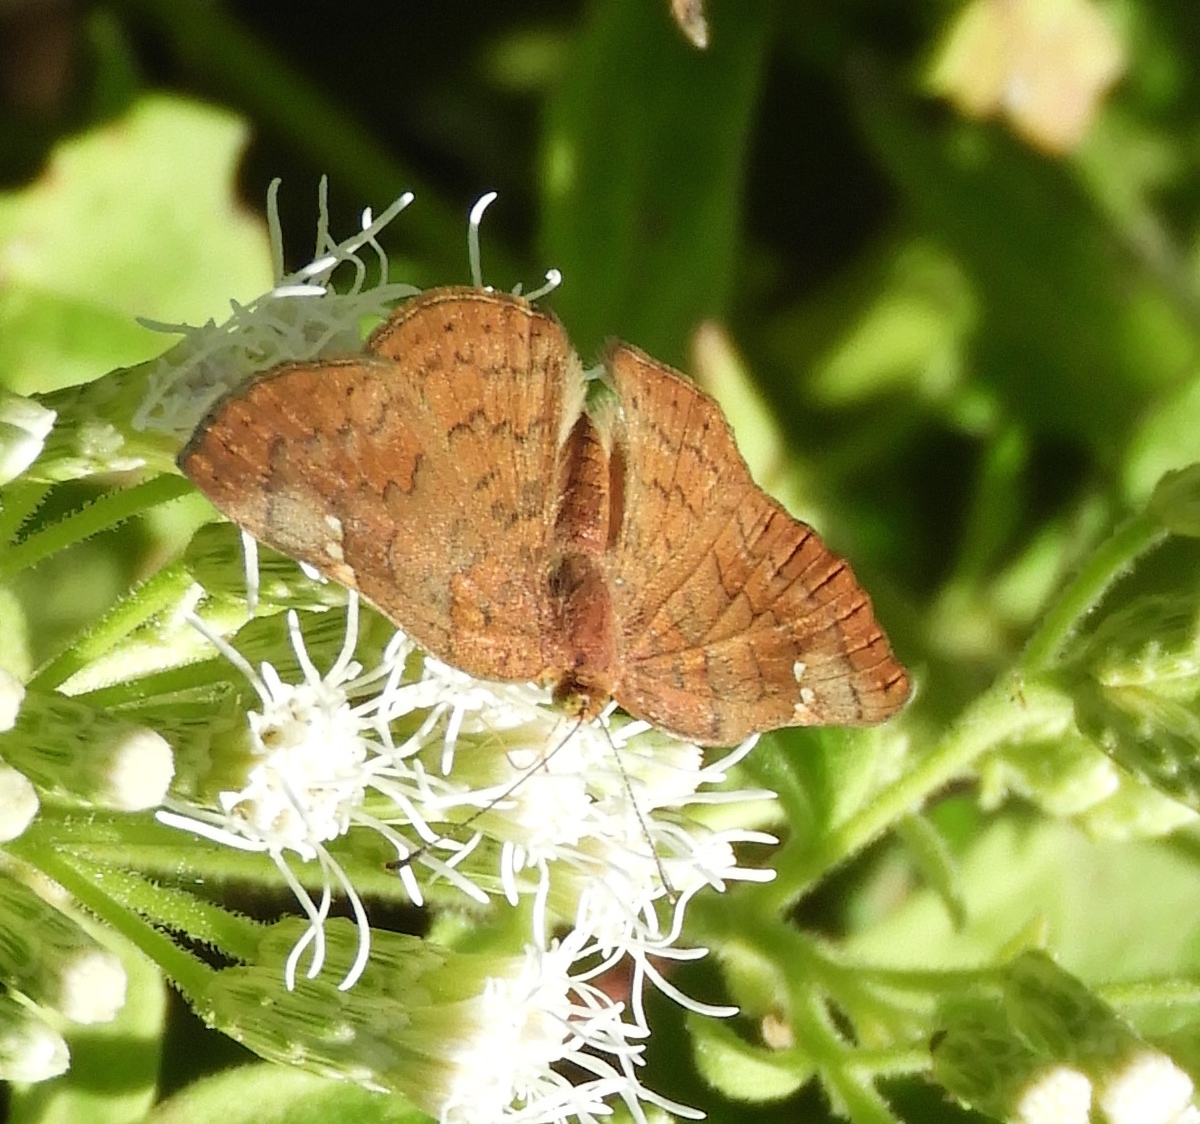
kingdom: Animalia
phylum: Arthropoda
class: Insecta
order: Lepidoptera
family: Riodinidae
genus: Curvie
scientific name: Curvie emesia
